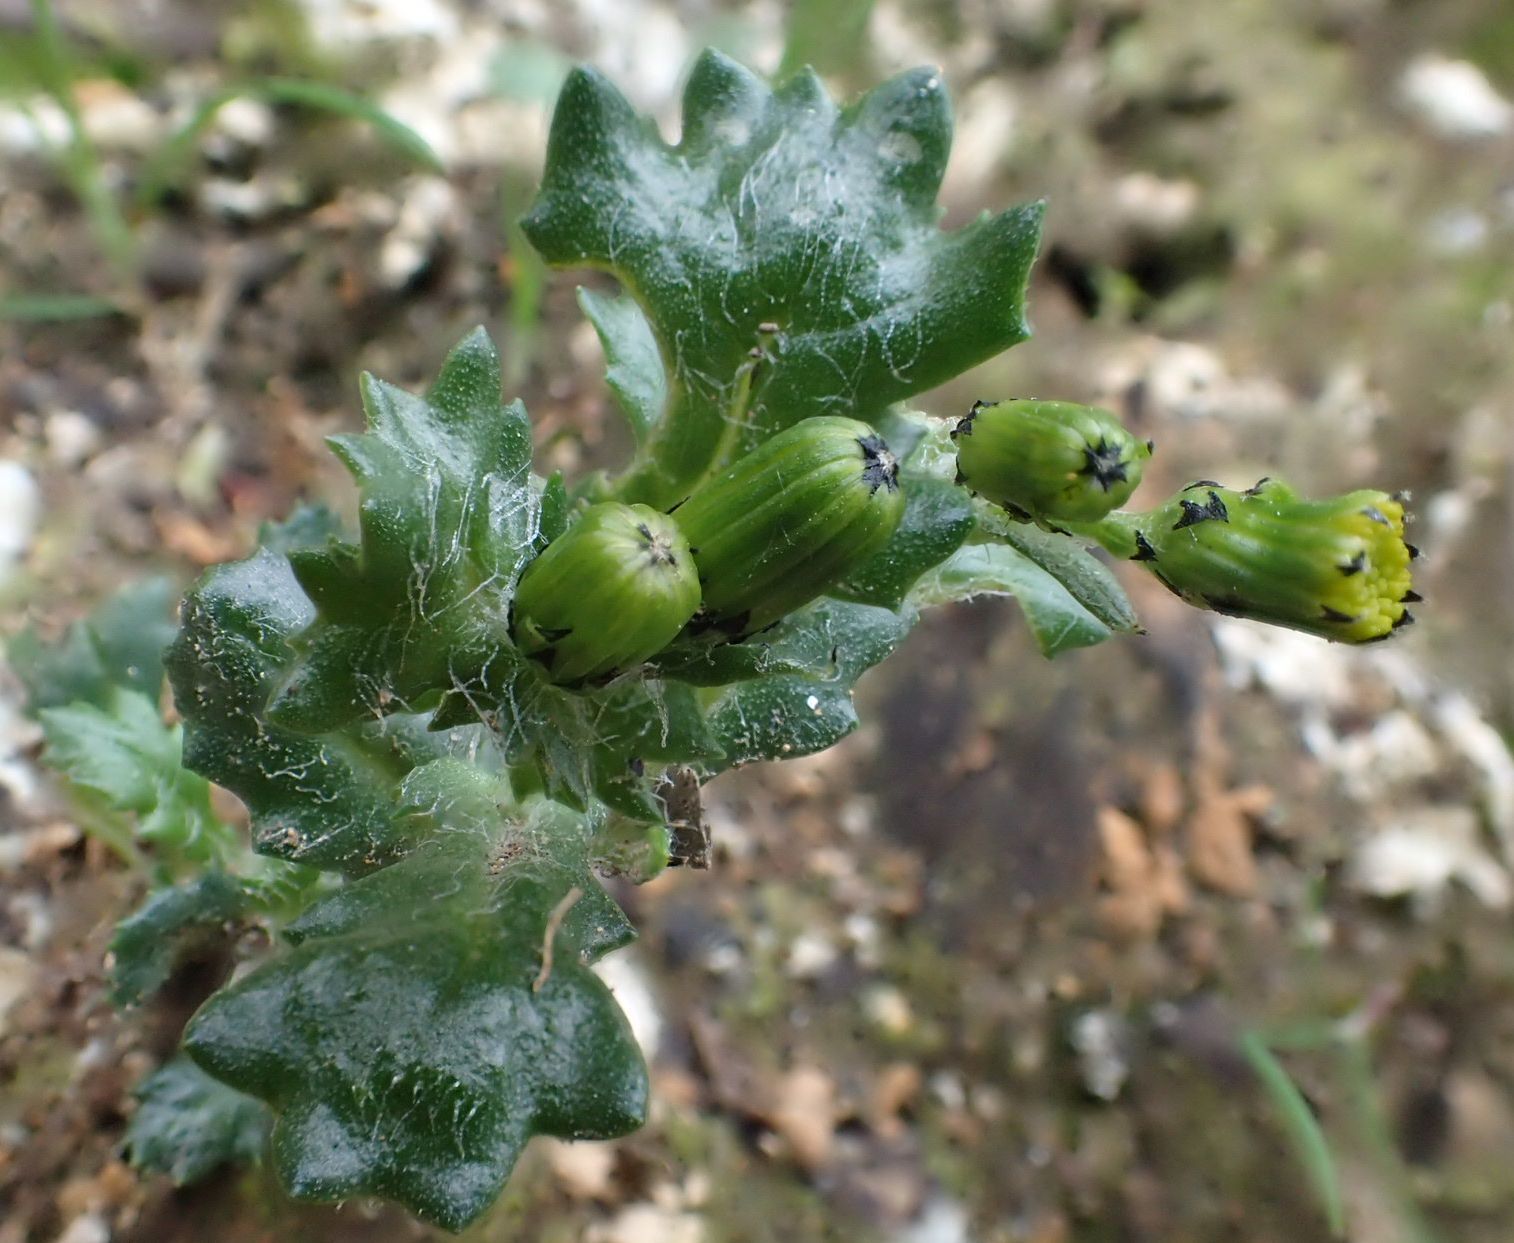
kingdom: Plantae
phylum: Tracheophyta
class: Magnoliopsida
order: Asterales
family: Asteraceae
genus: Senecio
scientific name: Senecio vulgaris
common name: Old-man-in-the-spring
